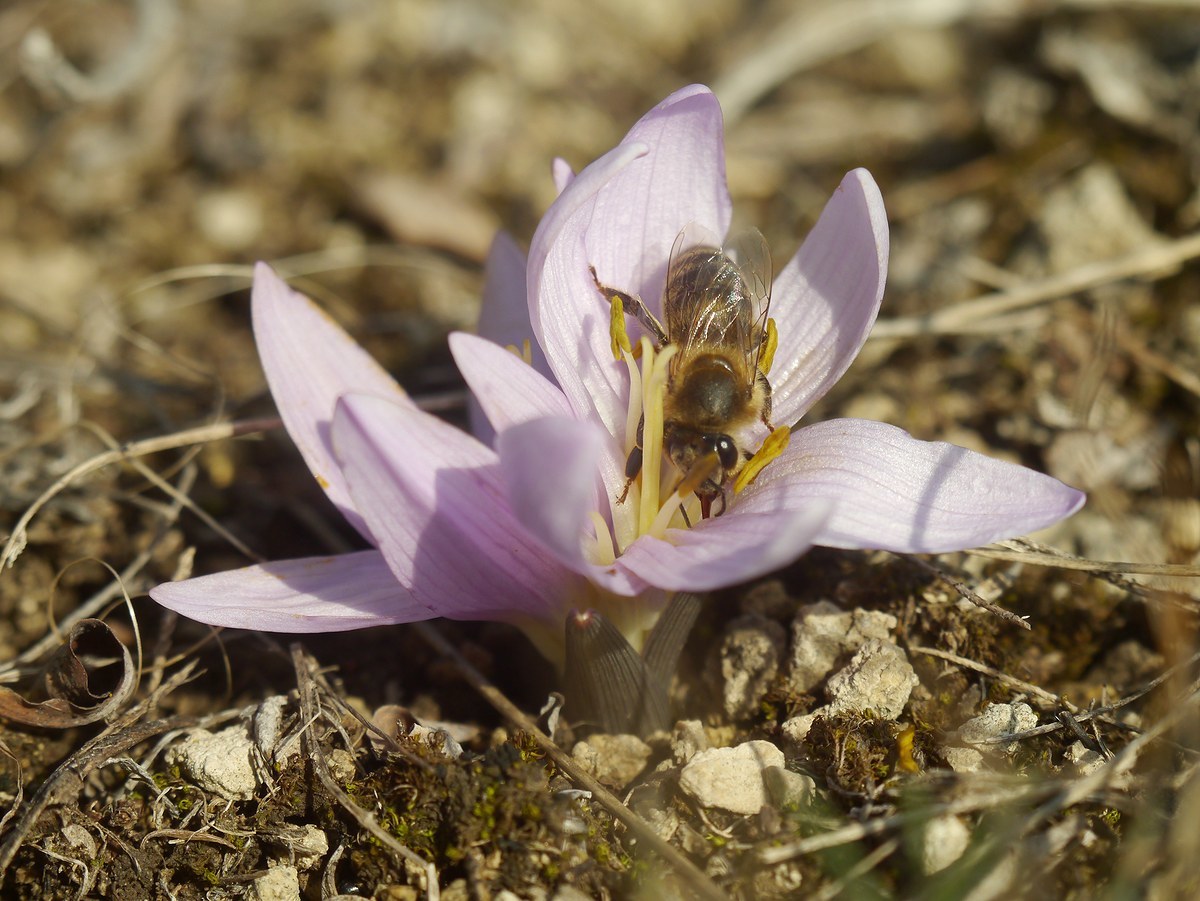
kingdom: Plantae
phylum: Tracheophyta
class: Liliopsida
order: Liliales
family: Colchicaceae
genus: Colchicum
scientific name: Colchicum bulbocodium
